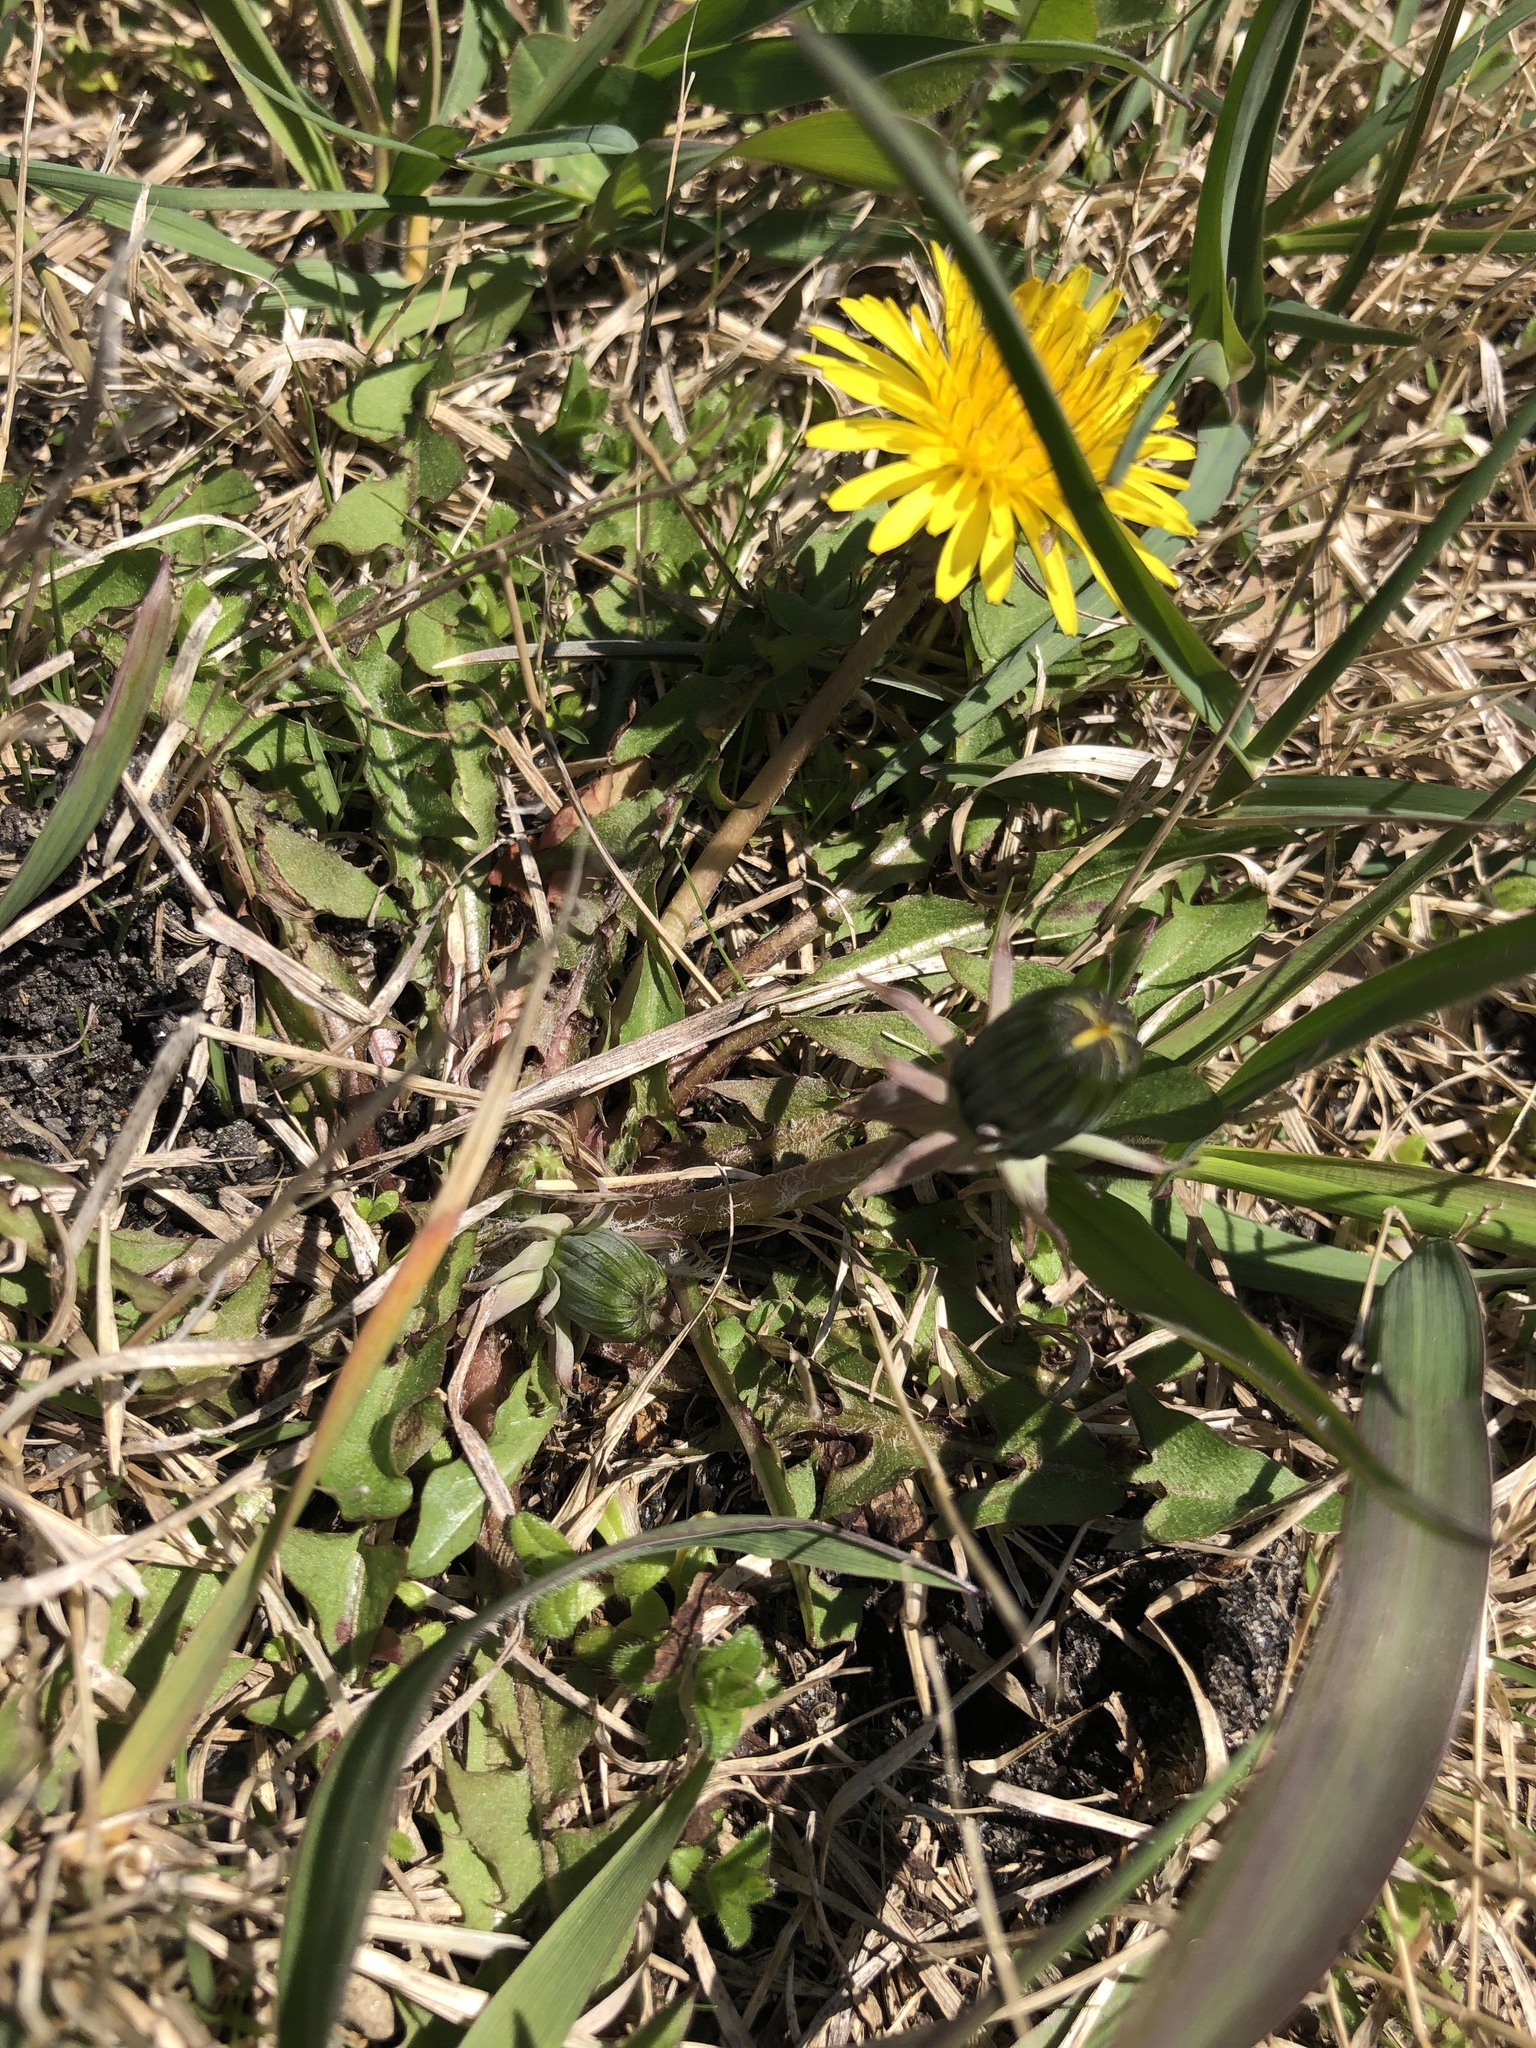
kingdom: Plantae
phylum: Tracheophyta
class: Magnoliopsida
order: Asterales
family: Asteraceae
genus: Taraxacum
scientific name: Taraxacum officinale
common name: Common dandelion
